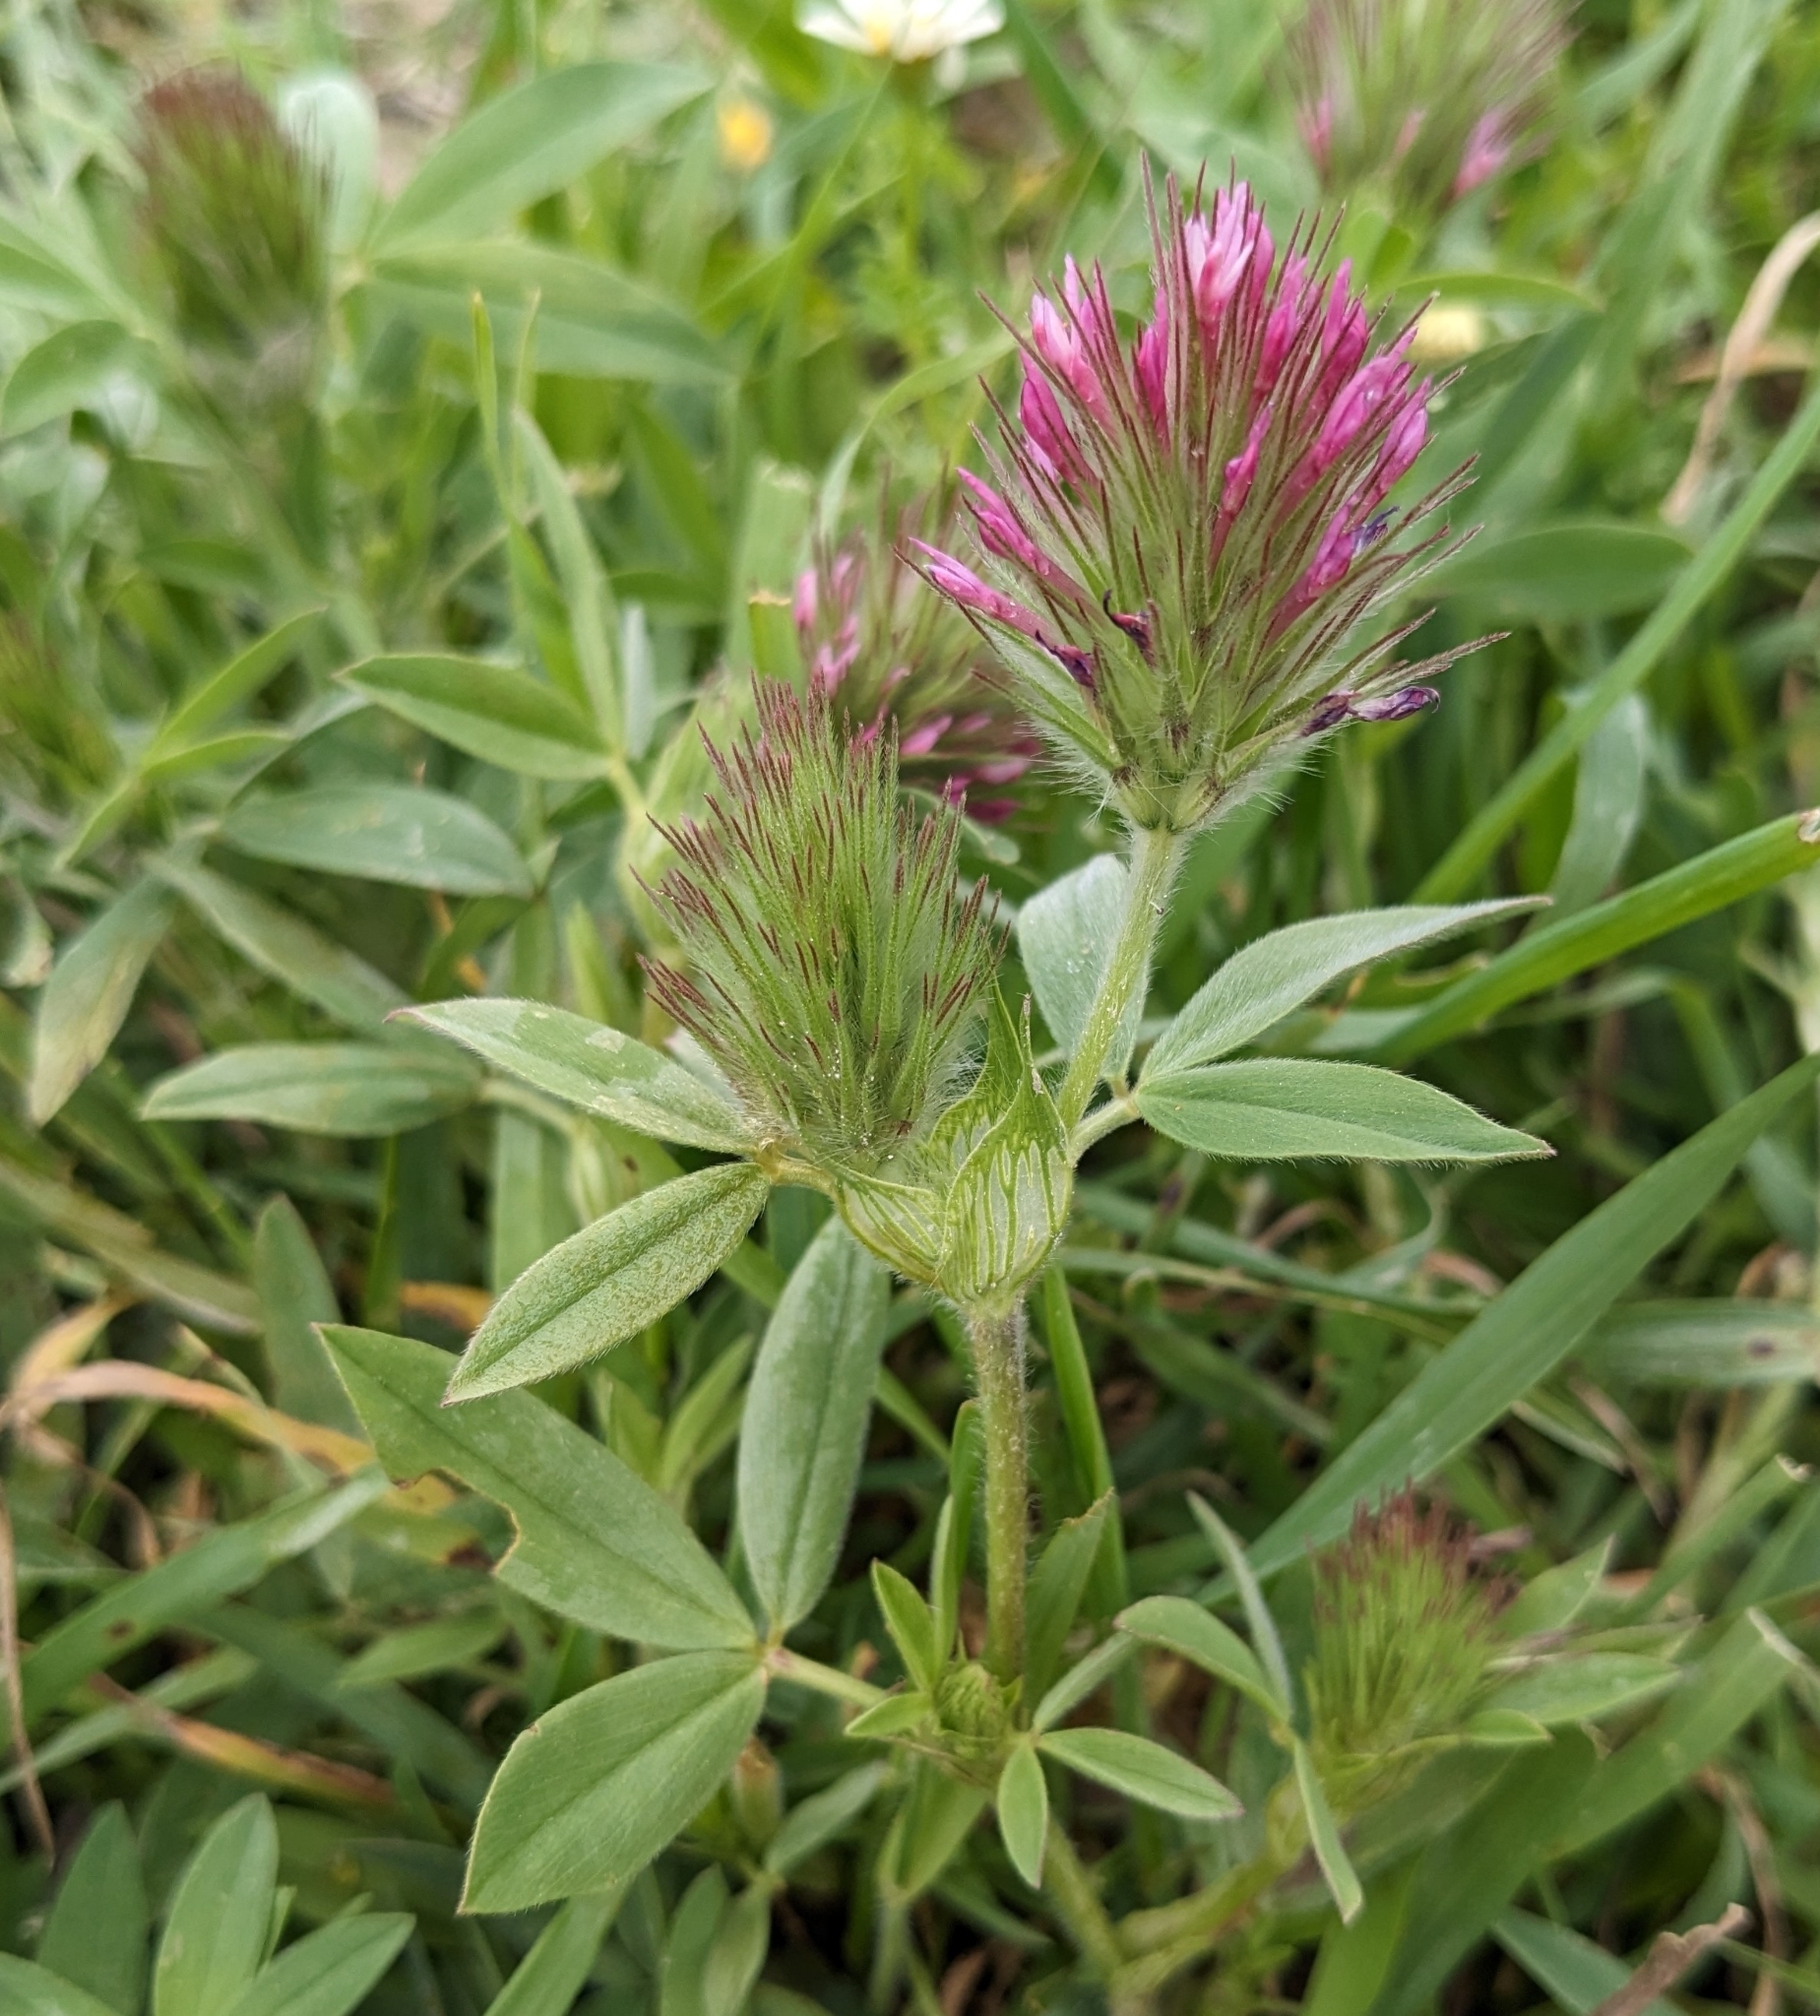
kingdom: Plantae
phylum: Tracheophyta
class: Magnoliopsida
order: Fabales
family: Fabaceae
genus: Trifolium
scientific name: Trifolium dasyurum
